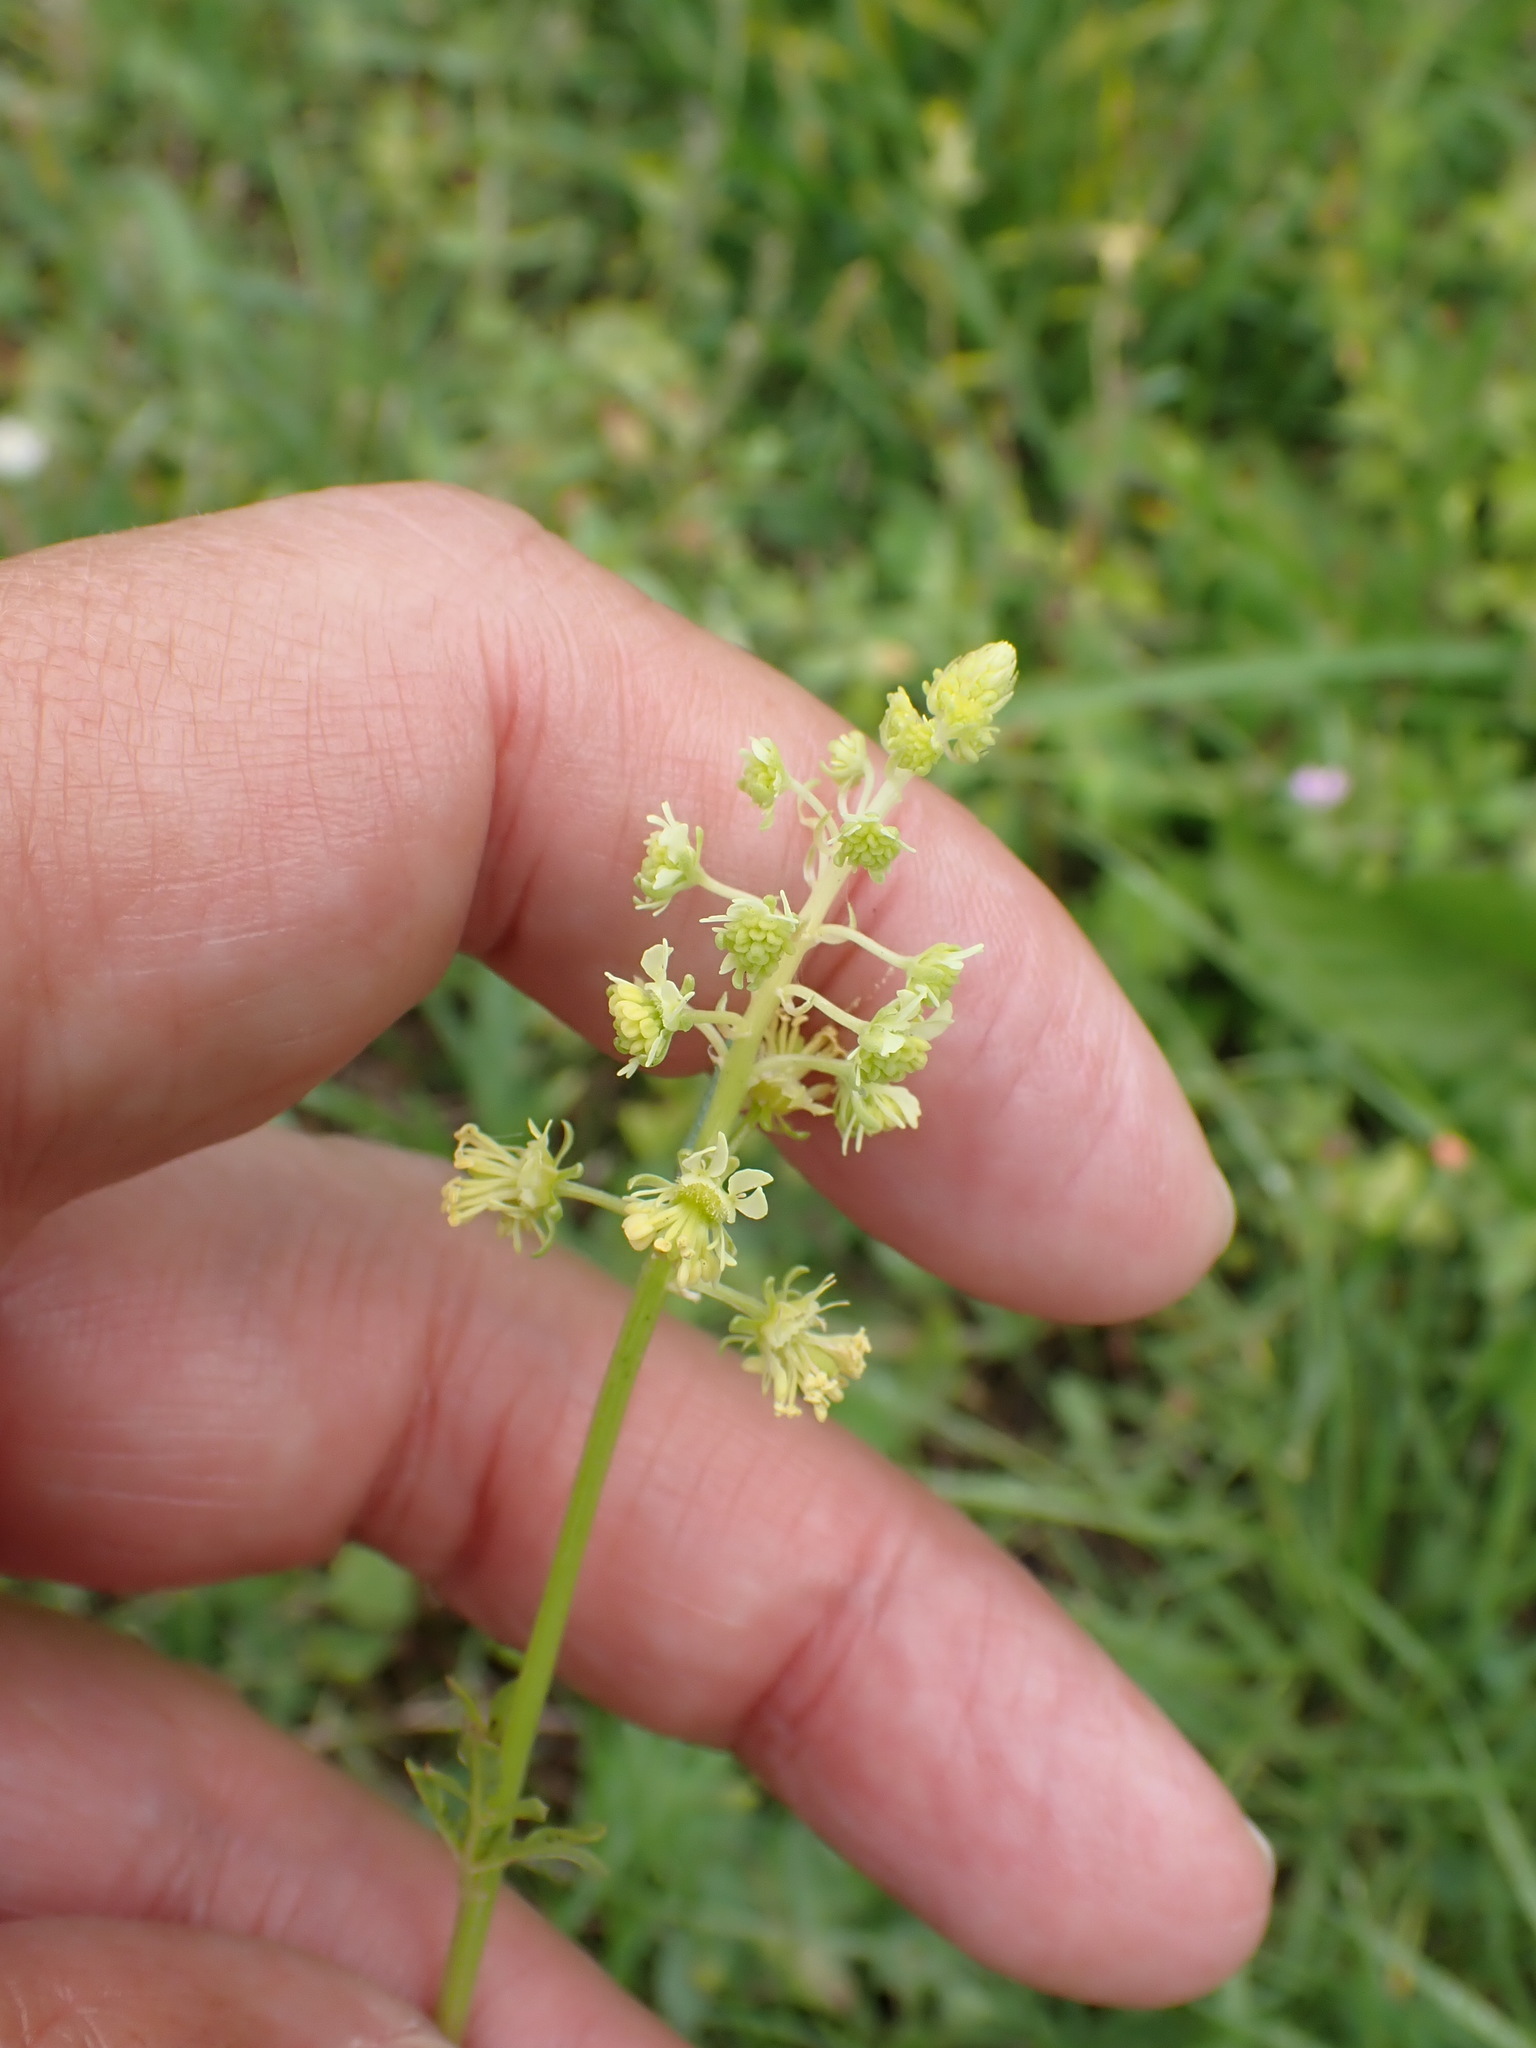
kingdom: Plantae
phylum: Tracheophyta
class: Magnoliopsida
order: Brassicales
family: Resedaceae
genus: Reseda
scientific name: Reseda lutea
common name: Wild mignonette
